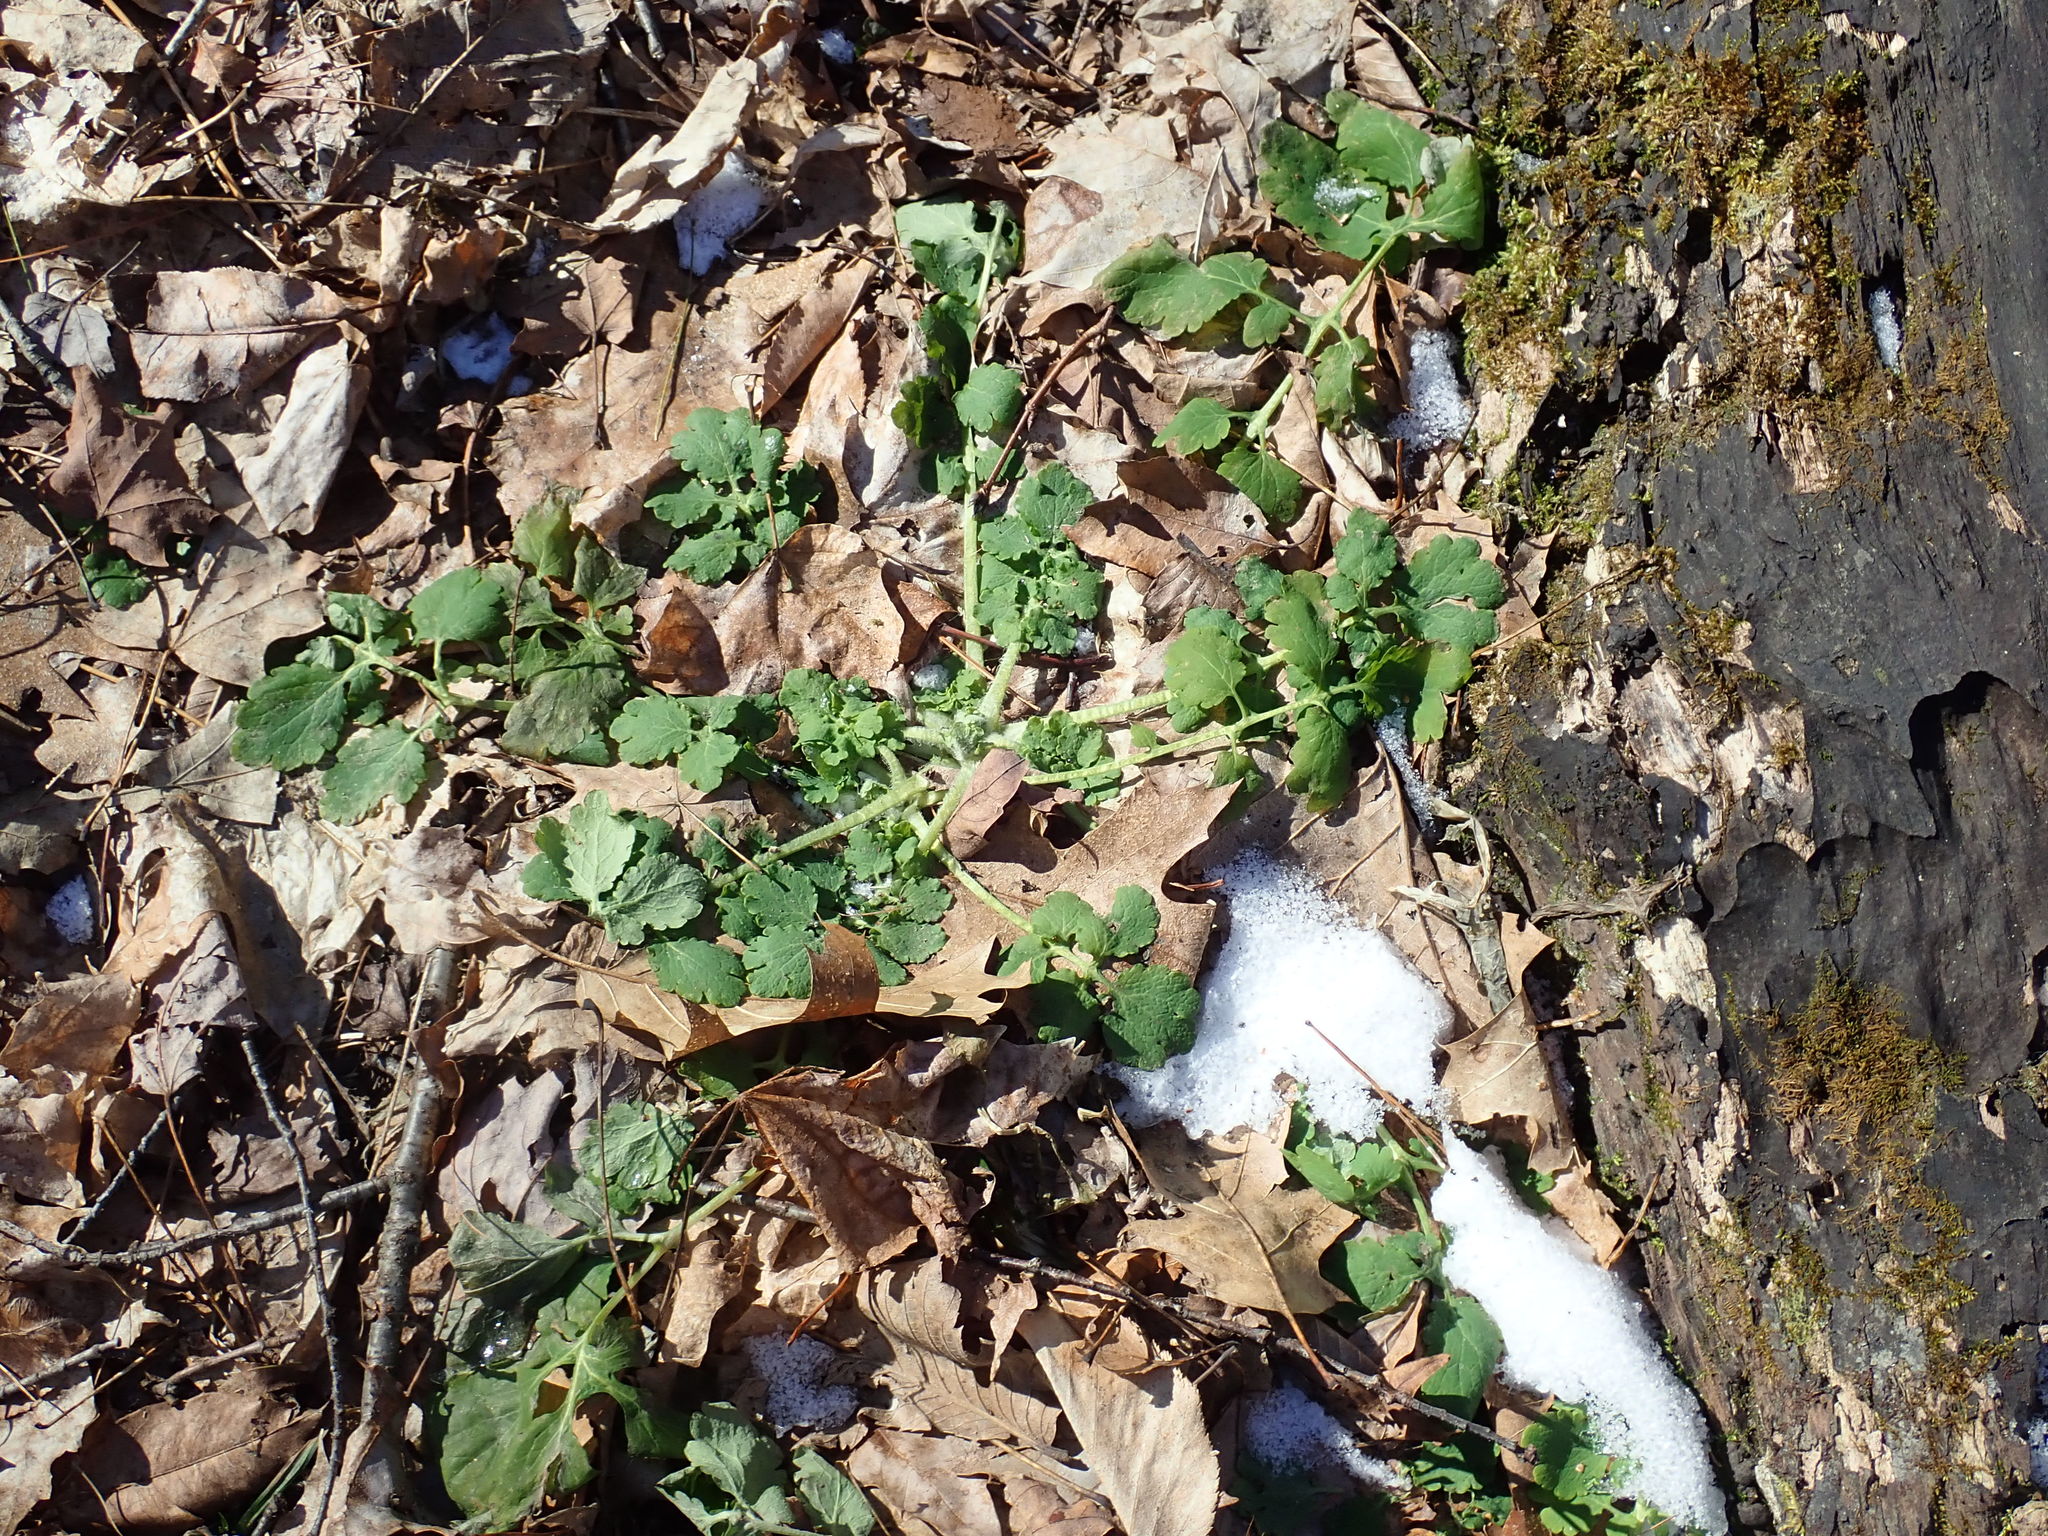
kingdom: Plantae
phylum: Tracheophyta
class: Magnoliopsida
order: Ranunculales
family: Papaveraceae
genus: Chelidonium
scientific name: Chelidonium majus
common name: Greater celandine
